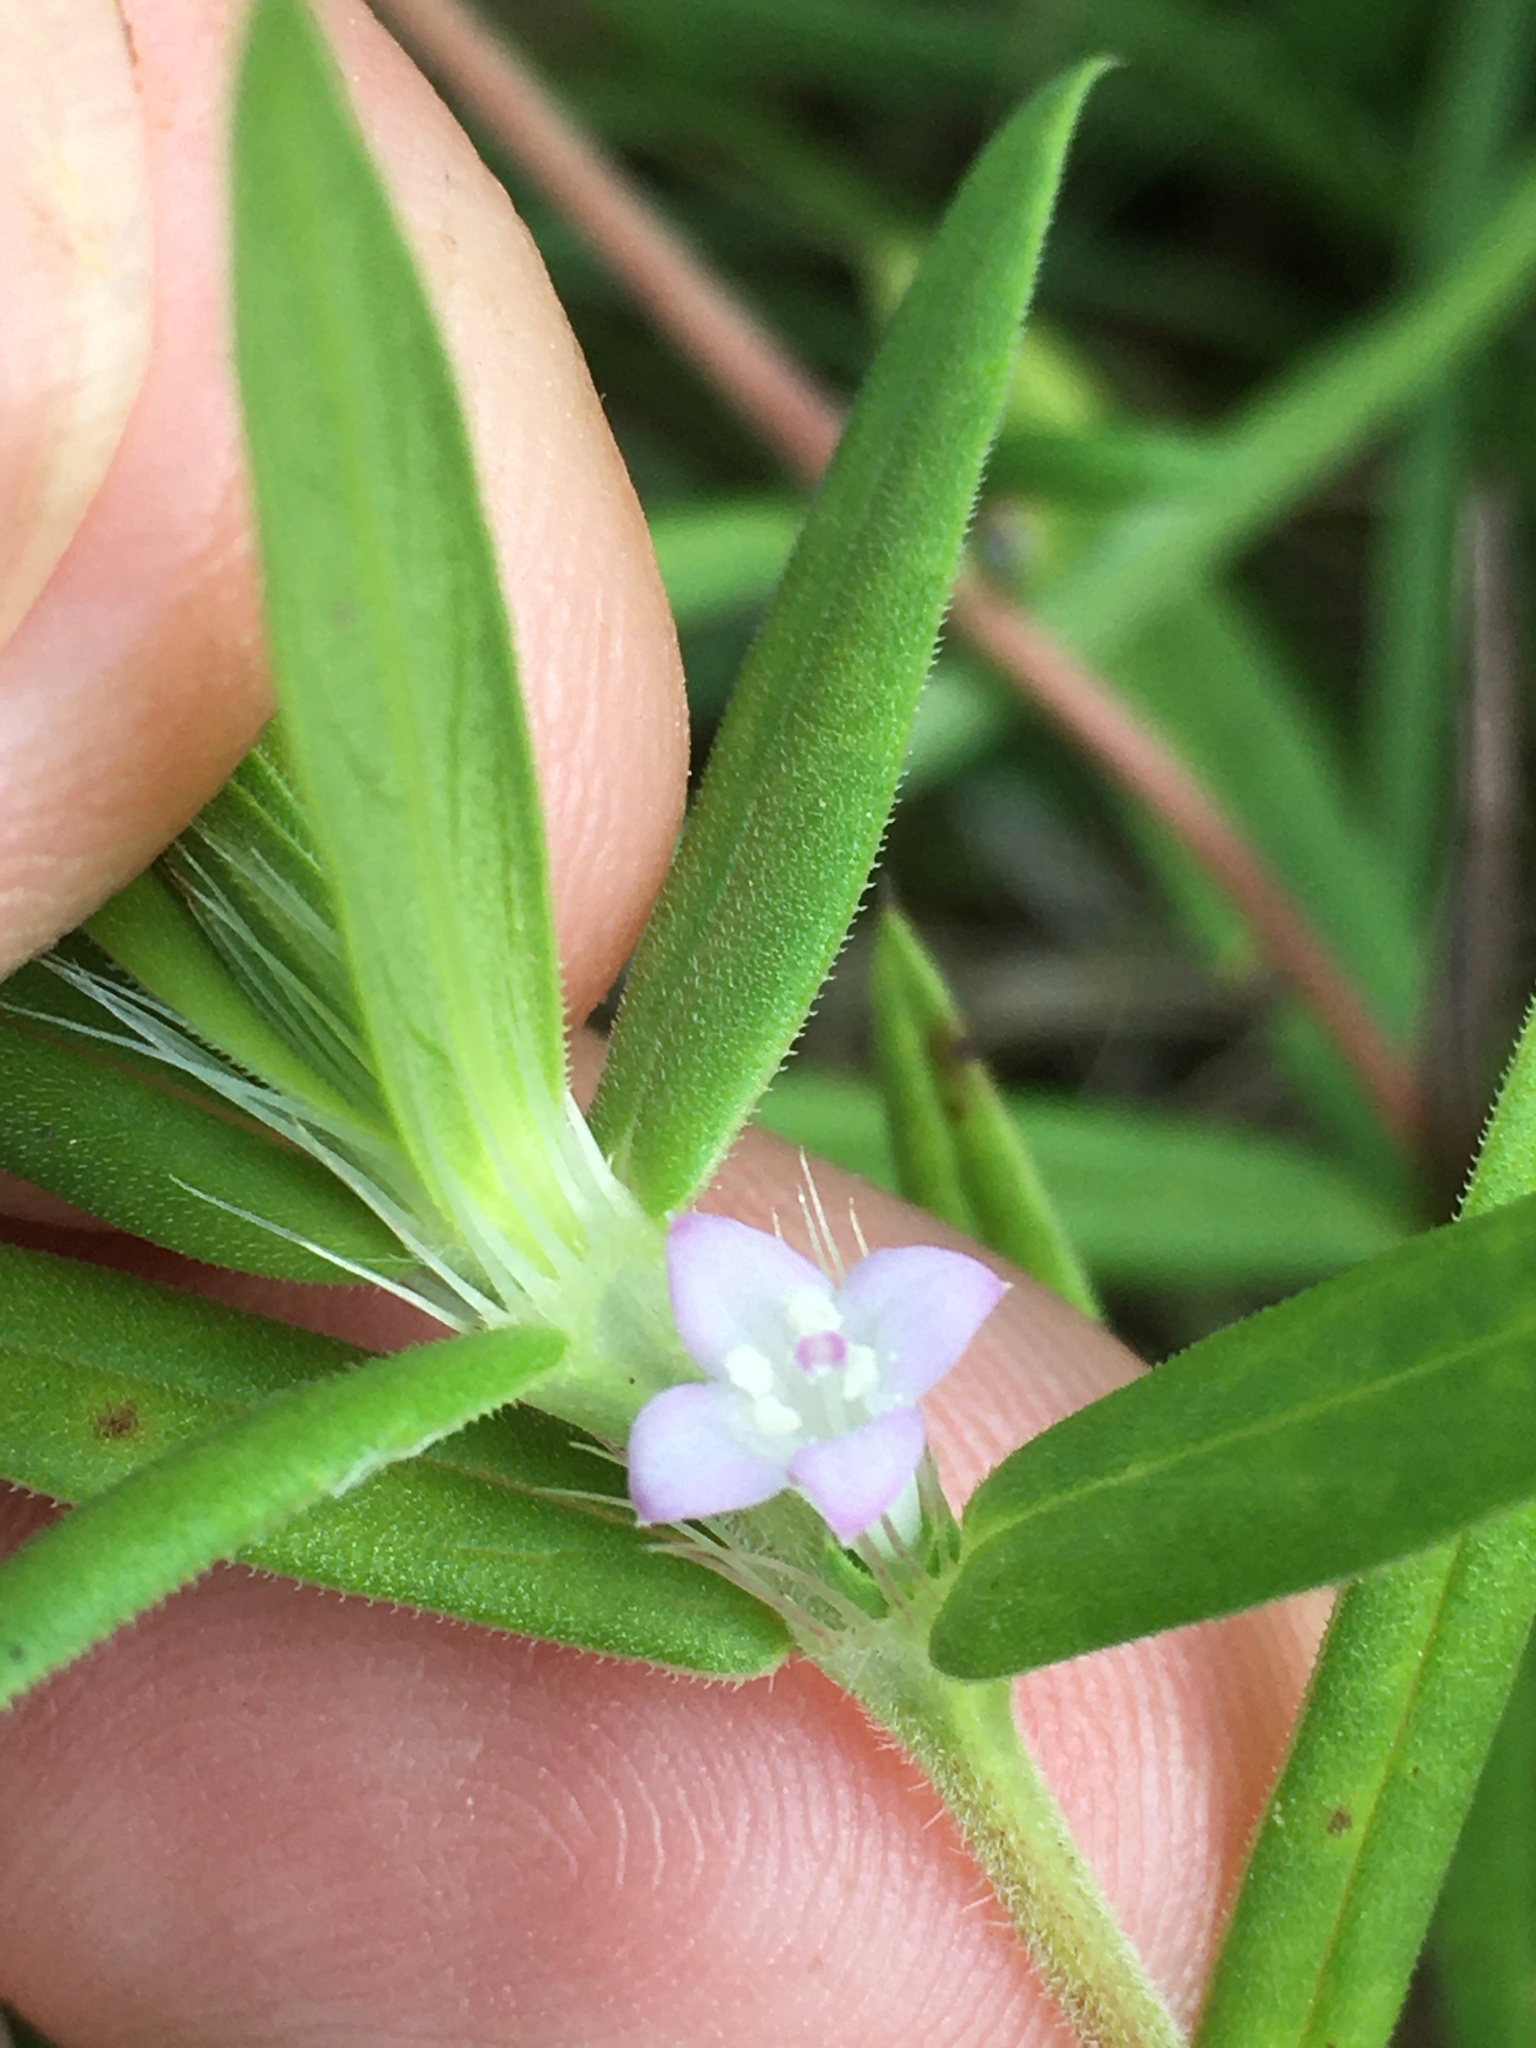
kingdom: Plantae
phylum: Tracheophyta
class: Magnoliopsida
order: Gentianales
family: Rubiaceae
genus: Hexasepalum
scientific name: Hexasepalum teres
